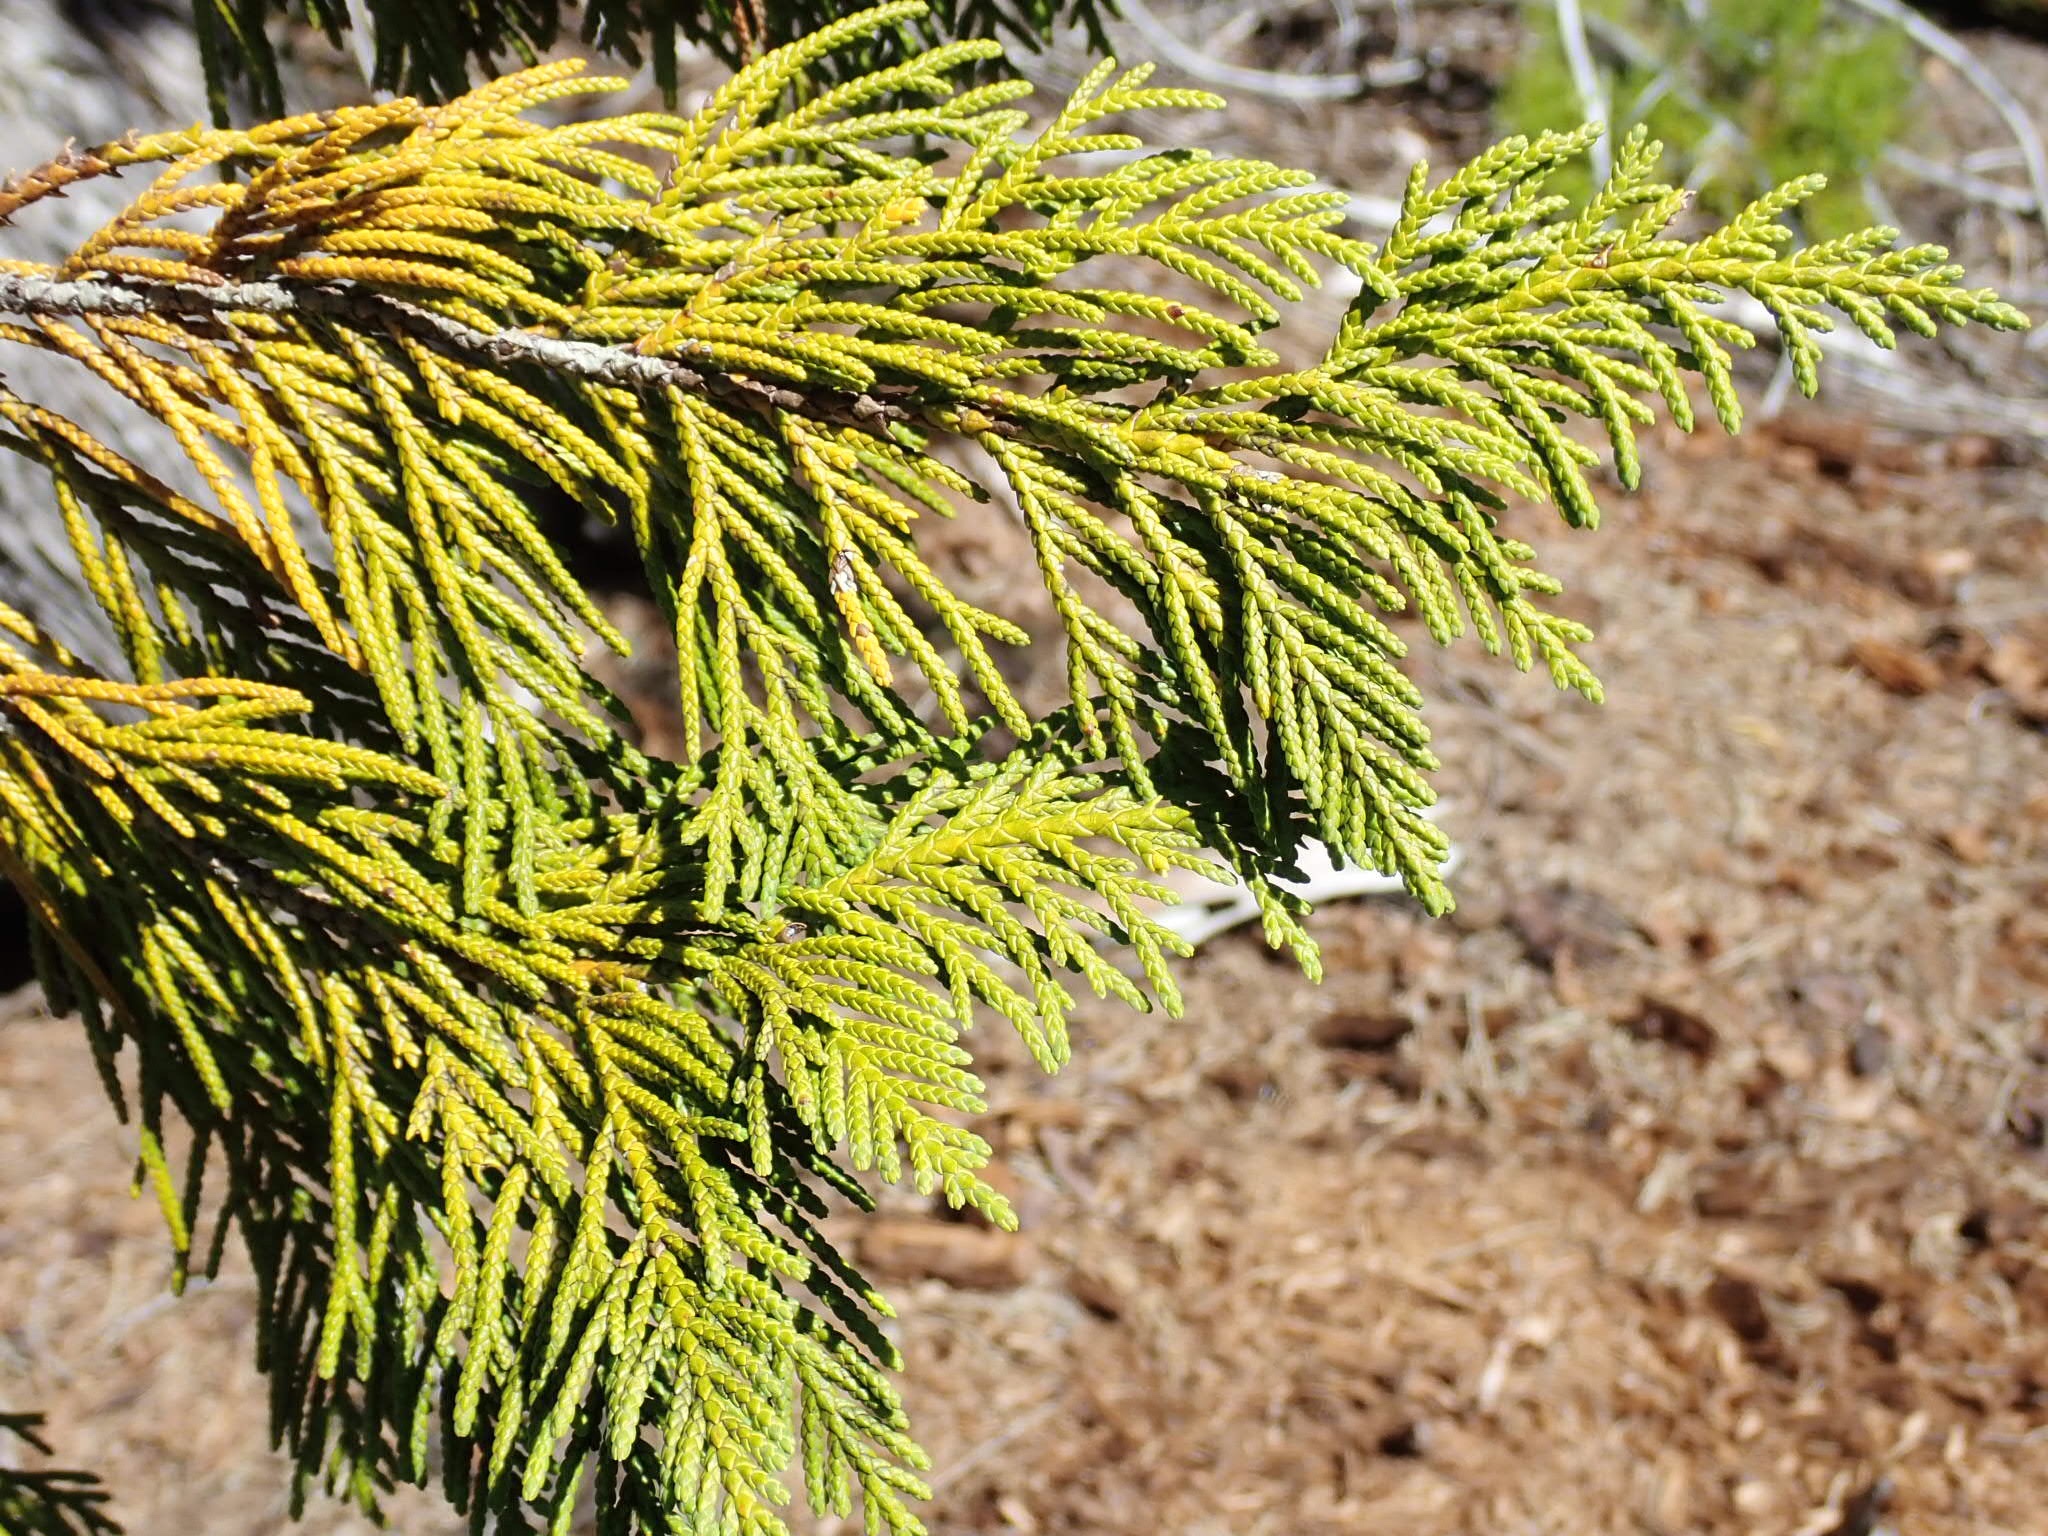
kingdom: Plantae
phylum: Tracheophyta
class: Pinopsida
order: Pinales
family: Cupressaceae
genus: Xanthocyparis
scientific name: Xanthocyparis nootkatensis
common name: Nootka cypress
